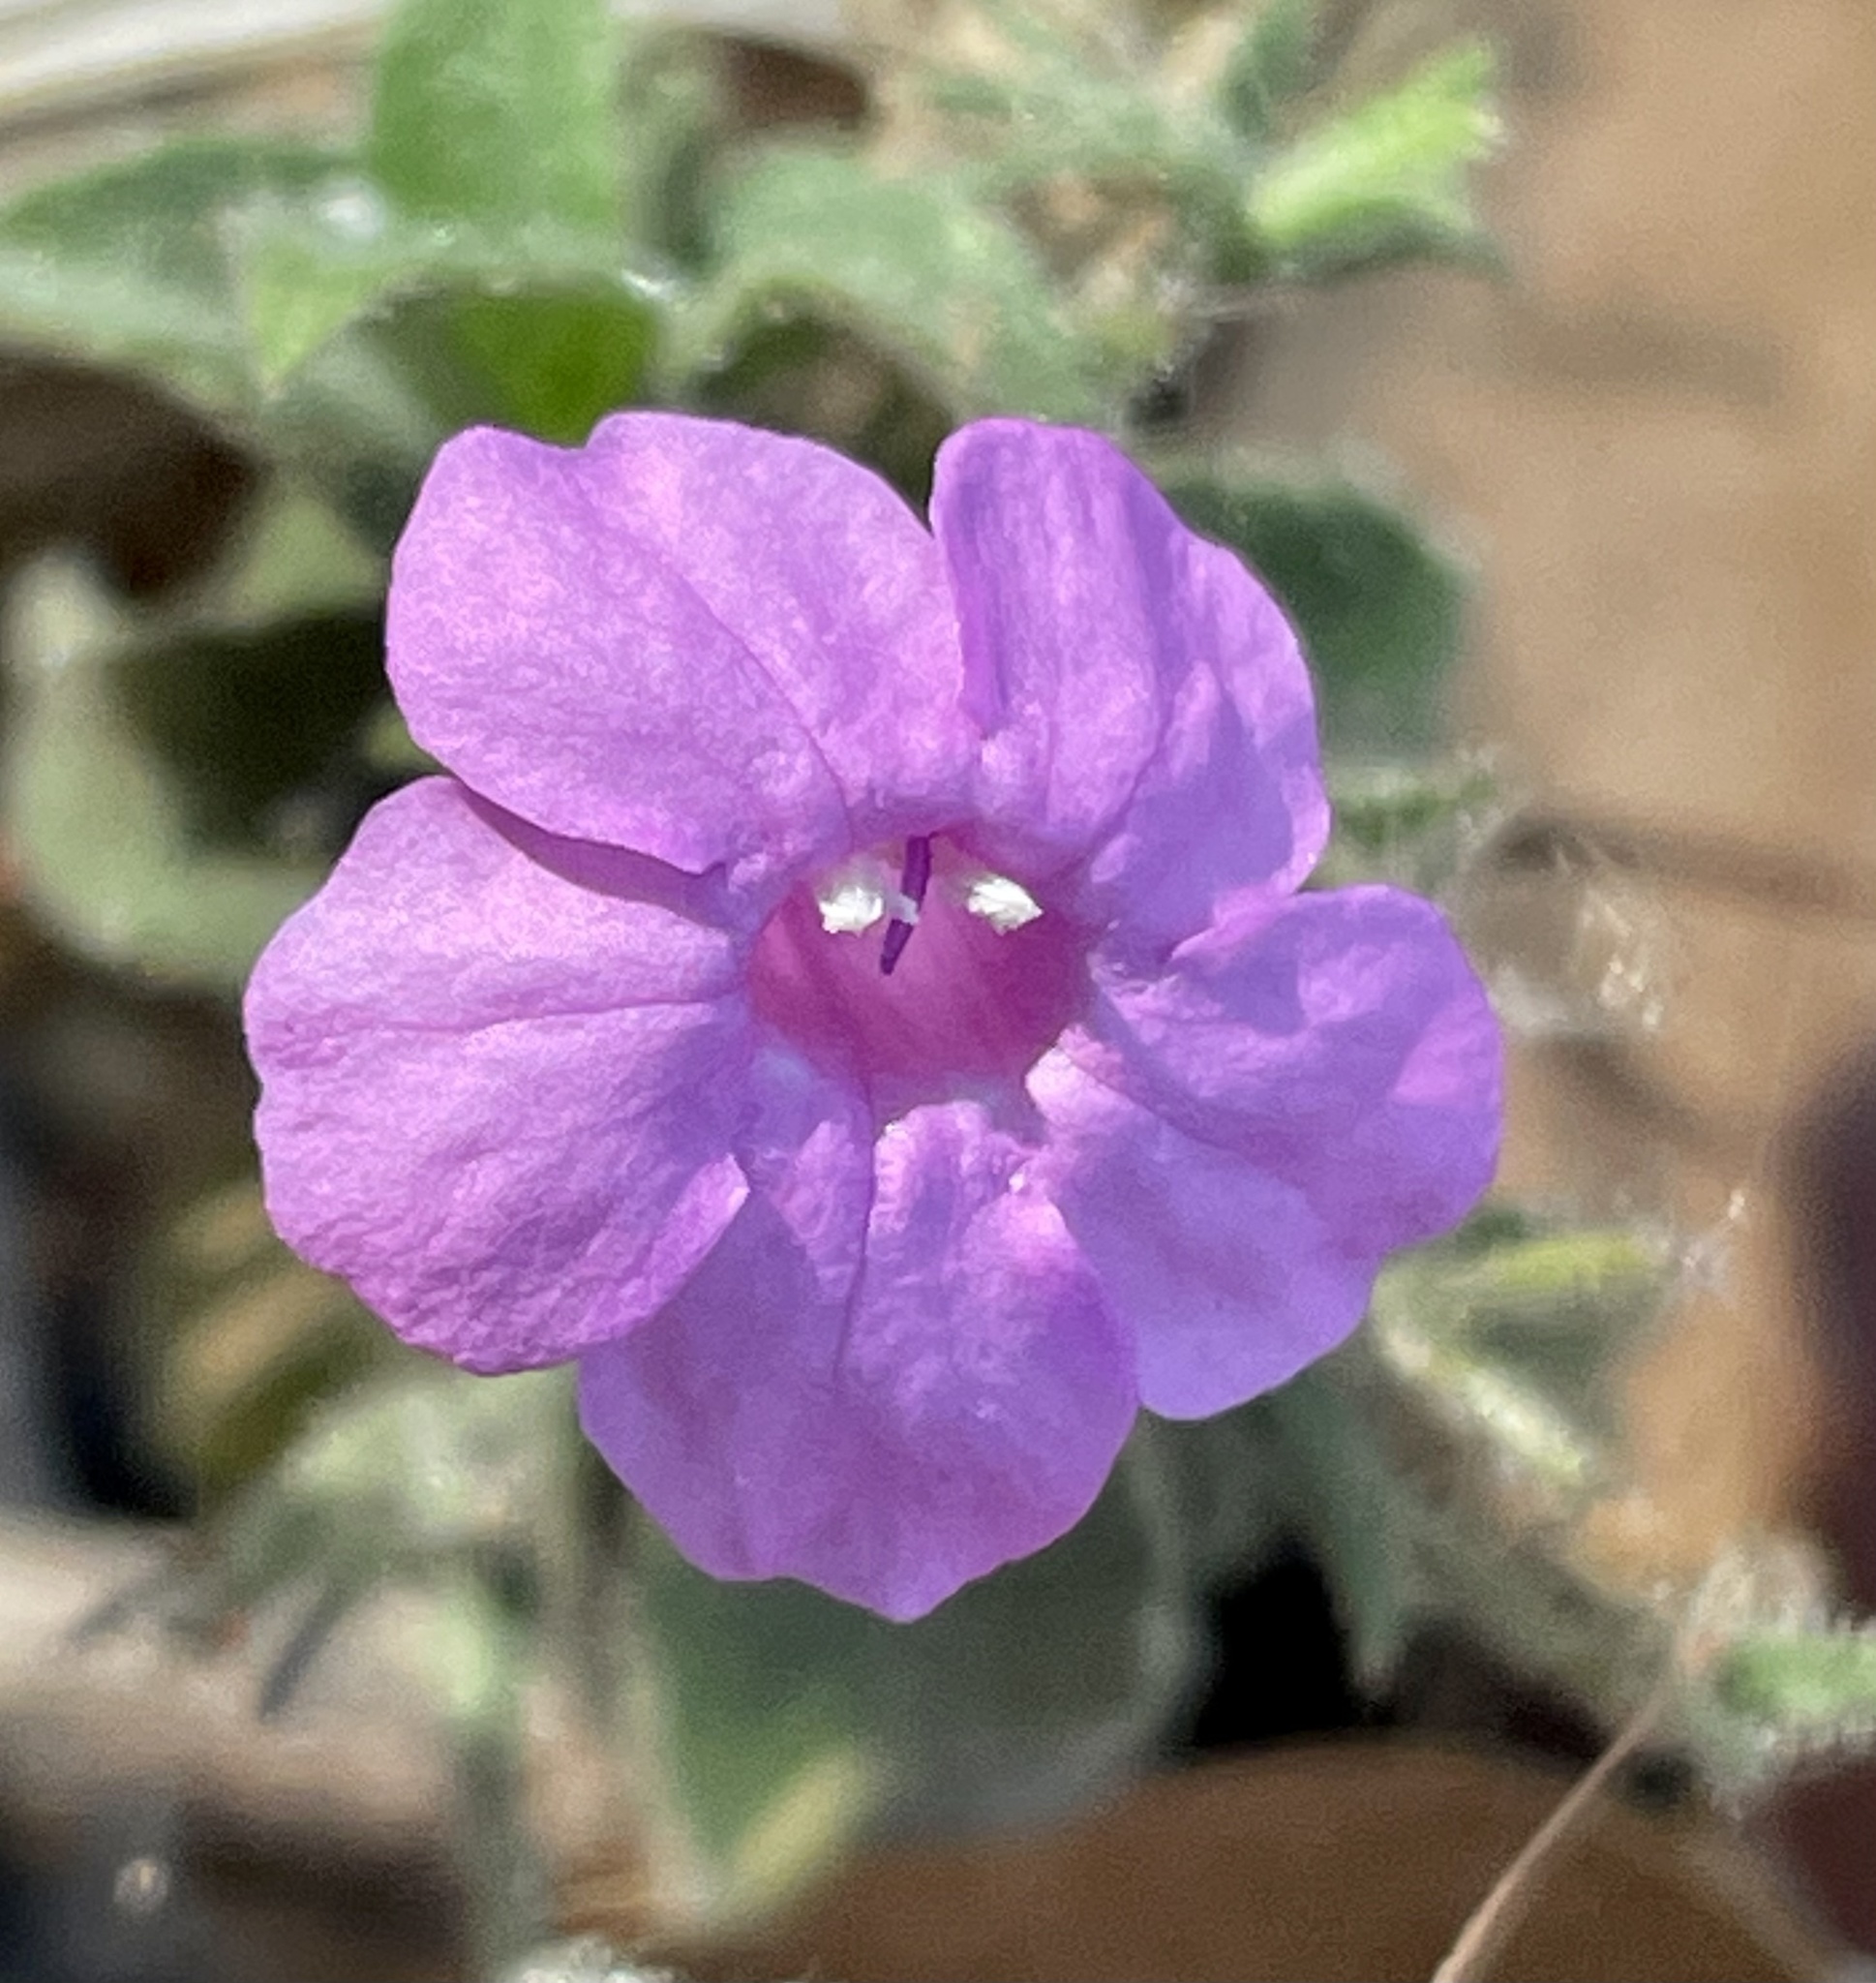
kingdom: Plantae
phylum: Tracheophyta
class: Magnoliopsida
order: Lamiales
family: Acanthaceae
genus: Ruellia
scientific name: Ruellia inundata
